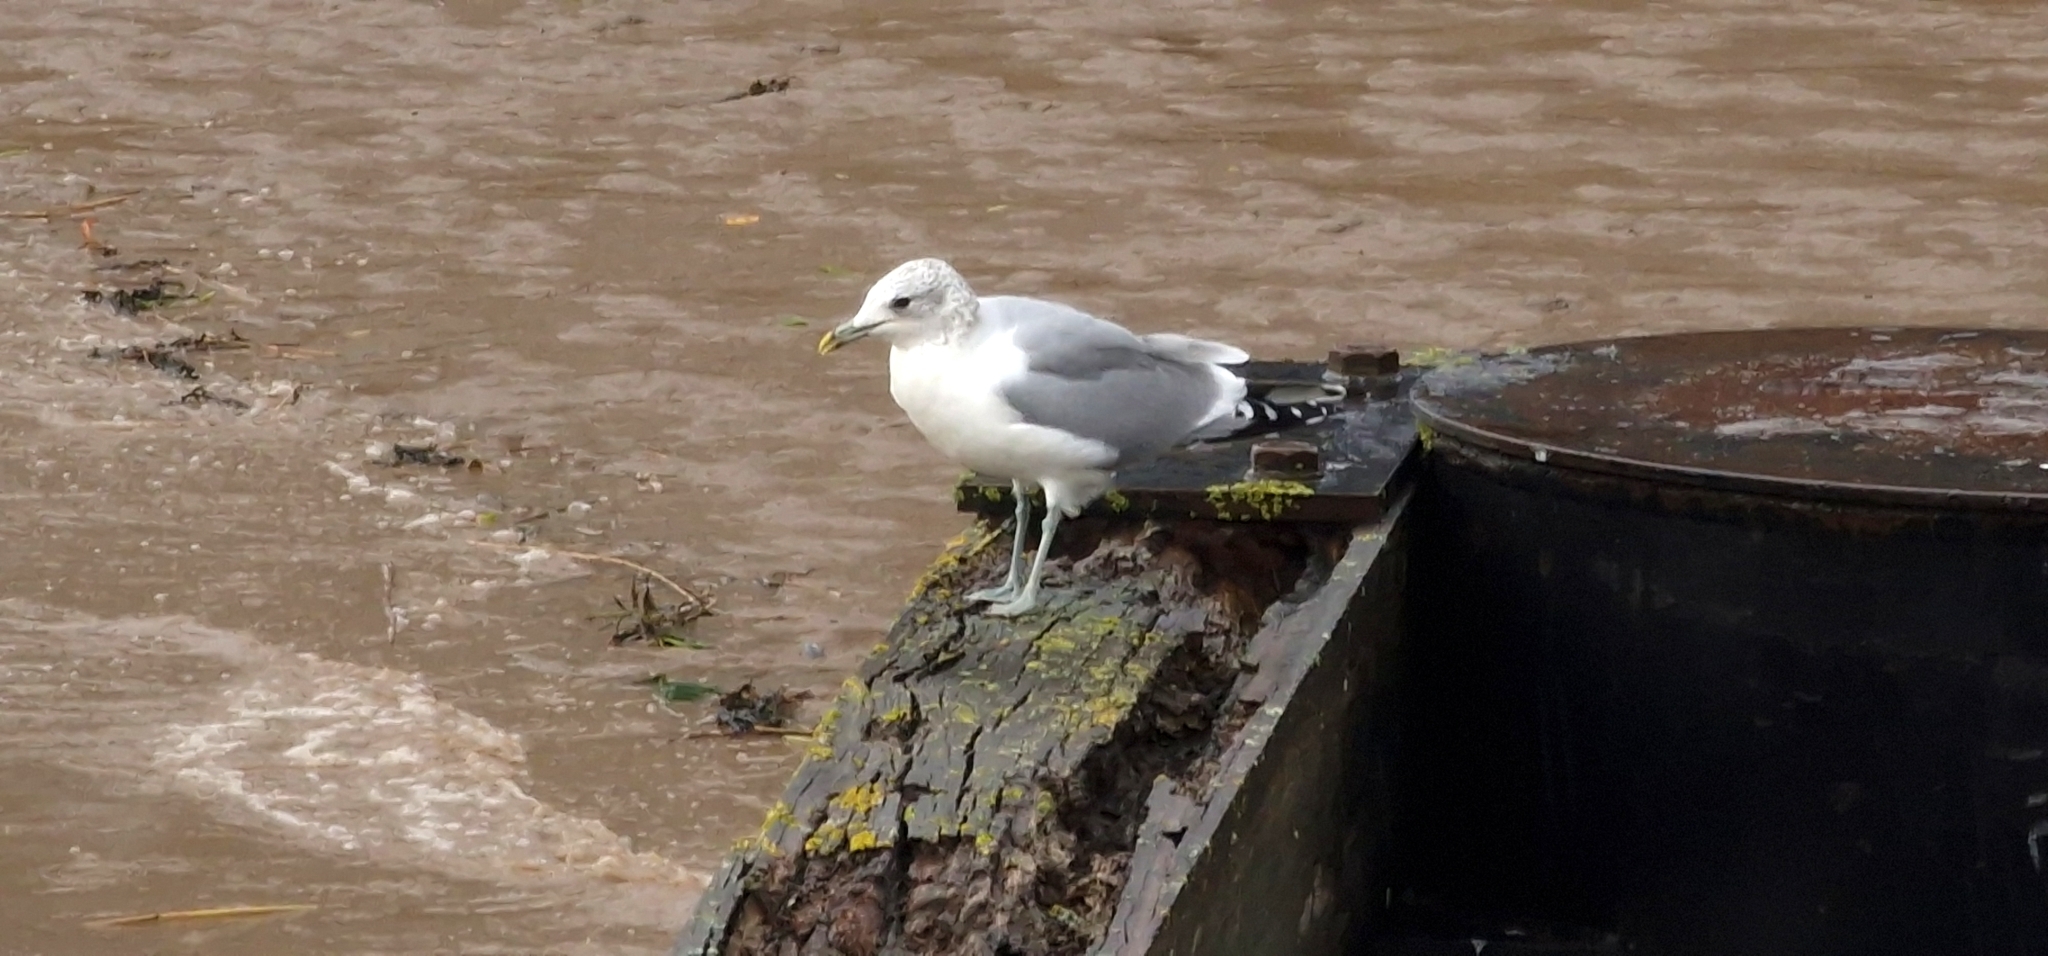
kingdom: Animalia
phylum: Chordata
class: Aves
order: Charadriiformes
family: Laridae
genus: Larus
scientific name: Larus canus
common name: Mew gull
